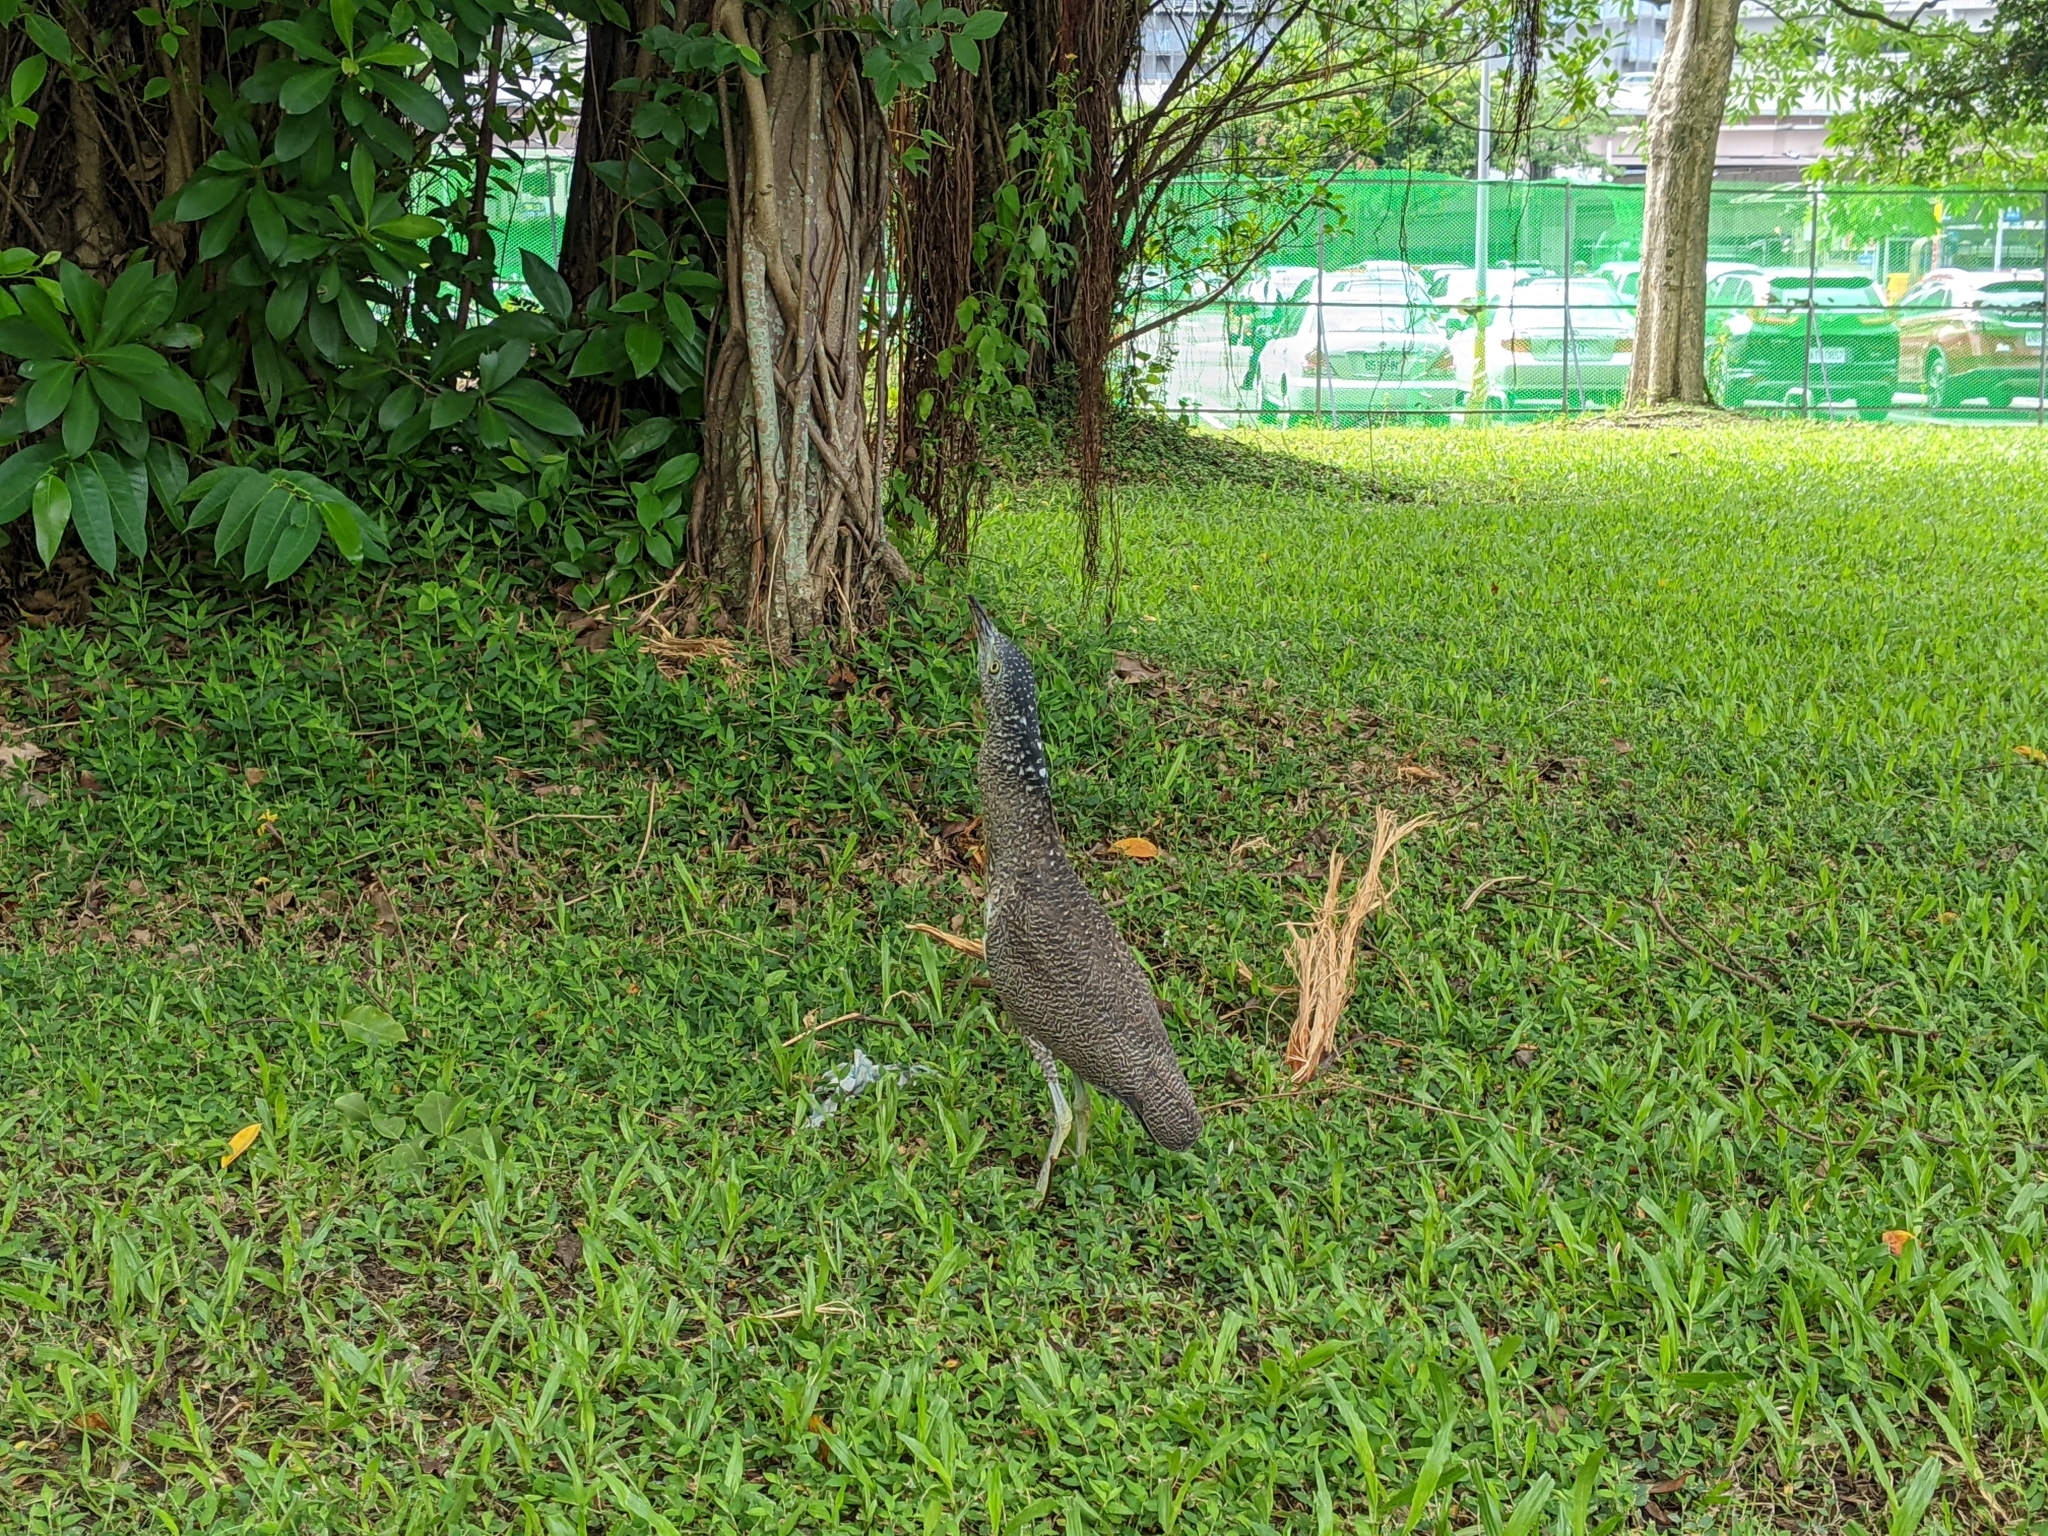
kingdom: Animalia
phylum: Chordata
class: Aves
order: Pelecaniformes
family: Ardeidae
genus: Gorsachius
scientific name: Gorsachius melanolophus
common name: Malayan night heron
